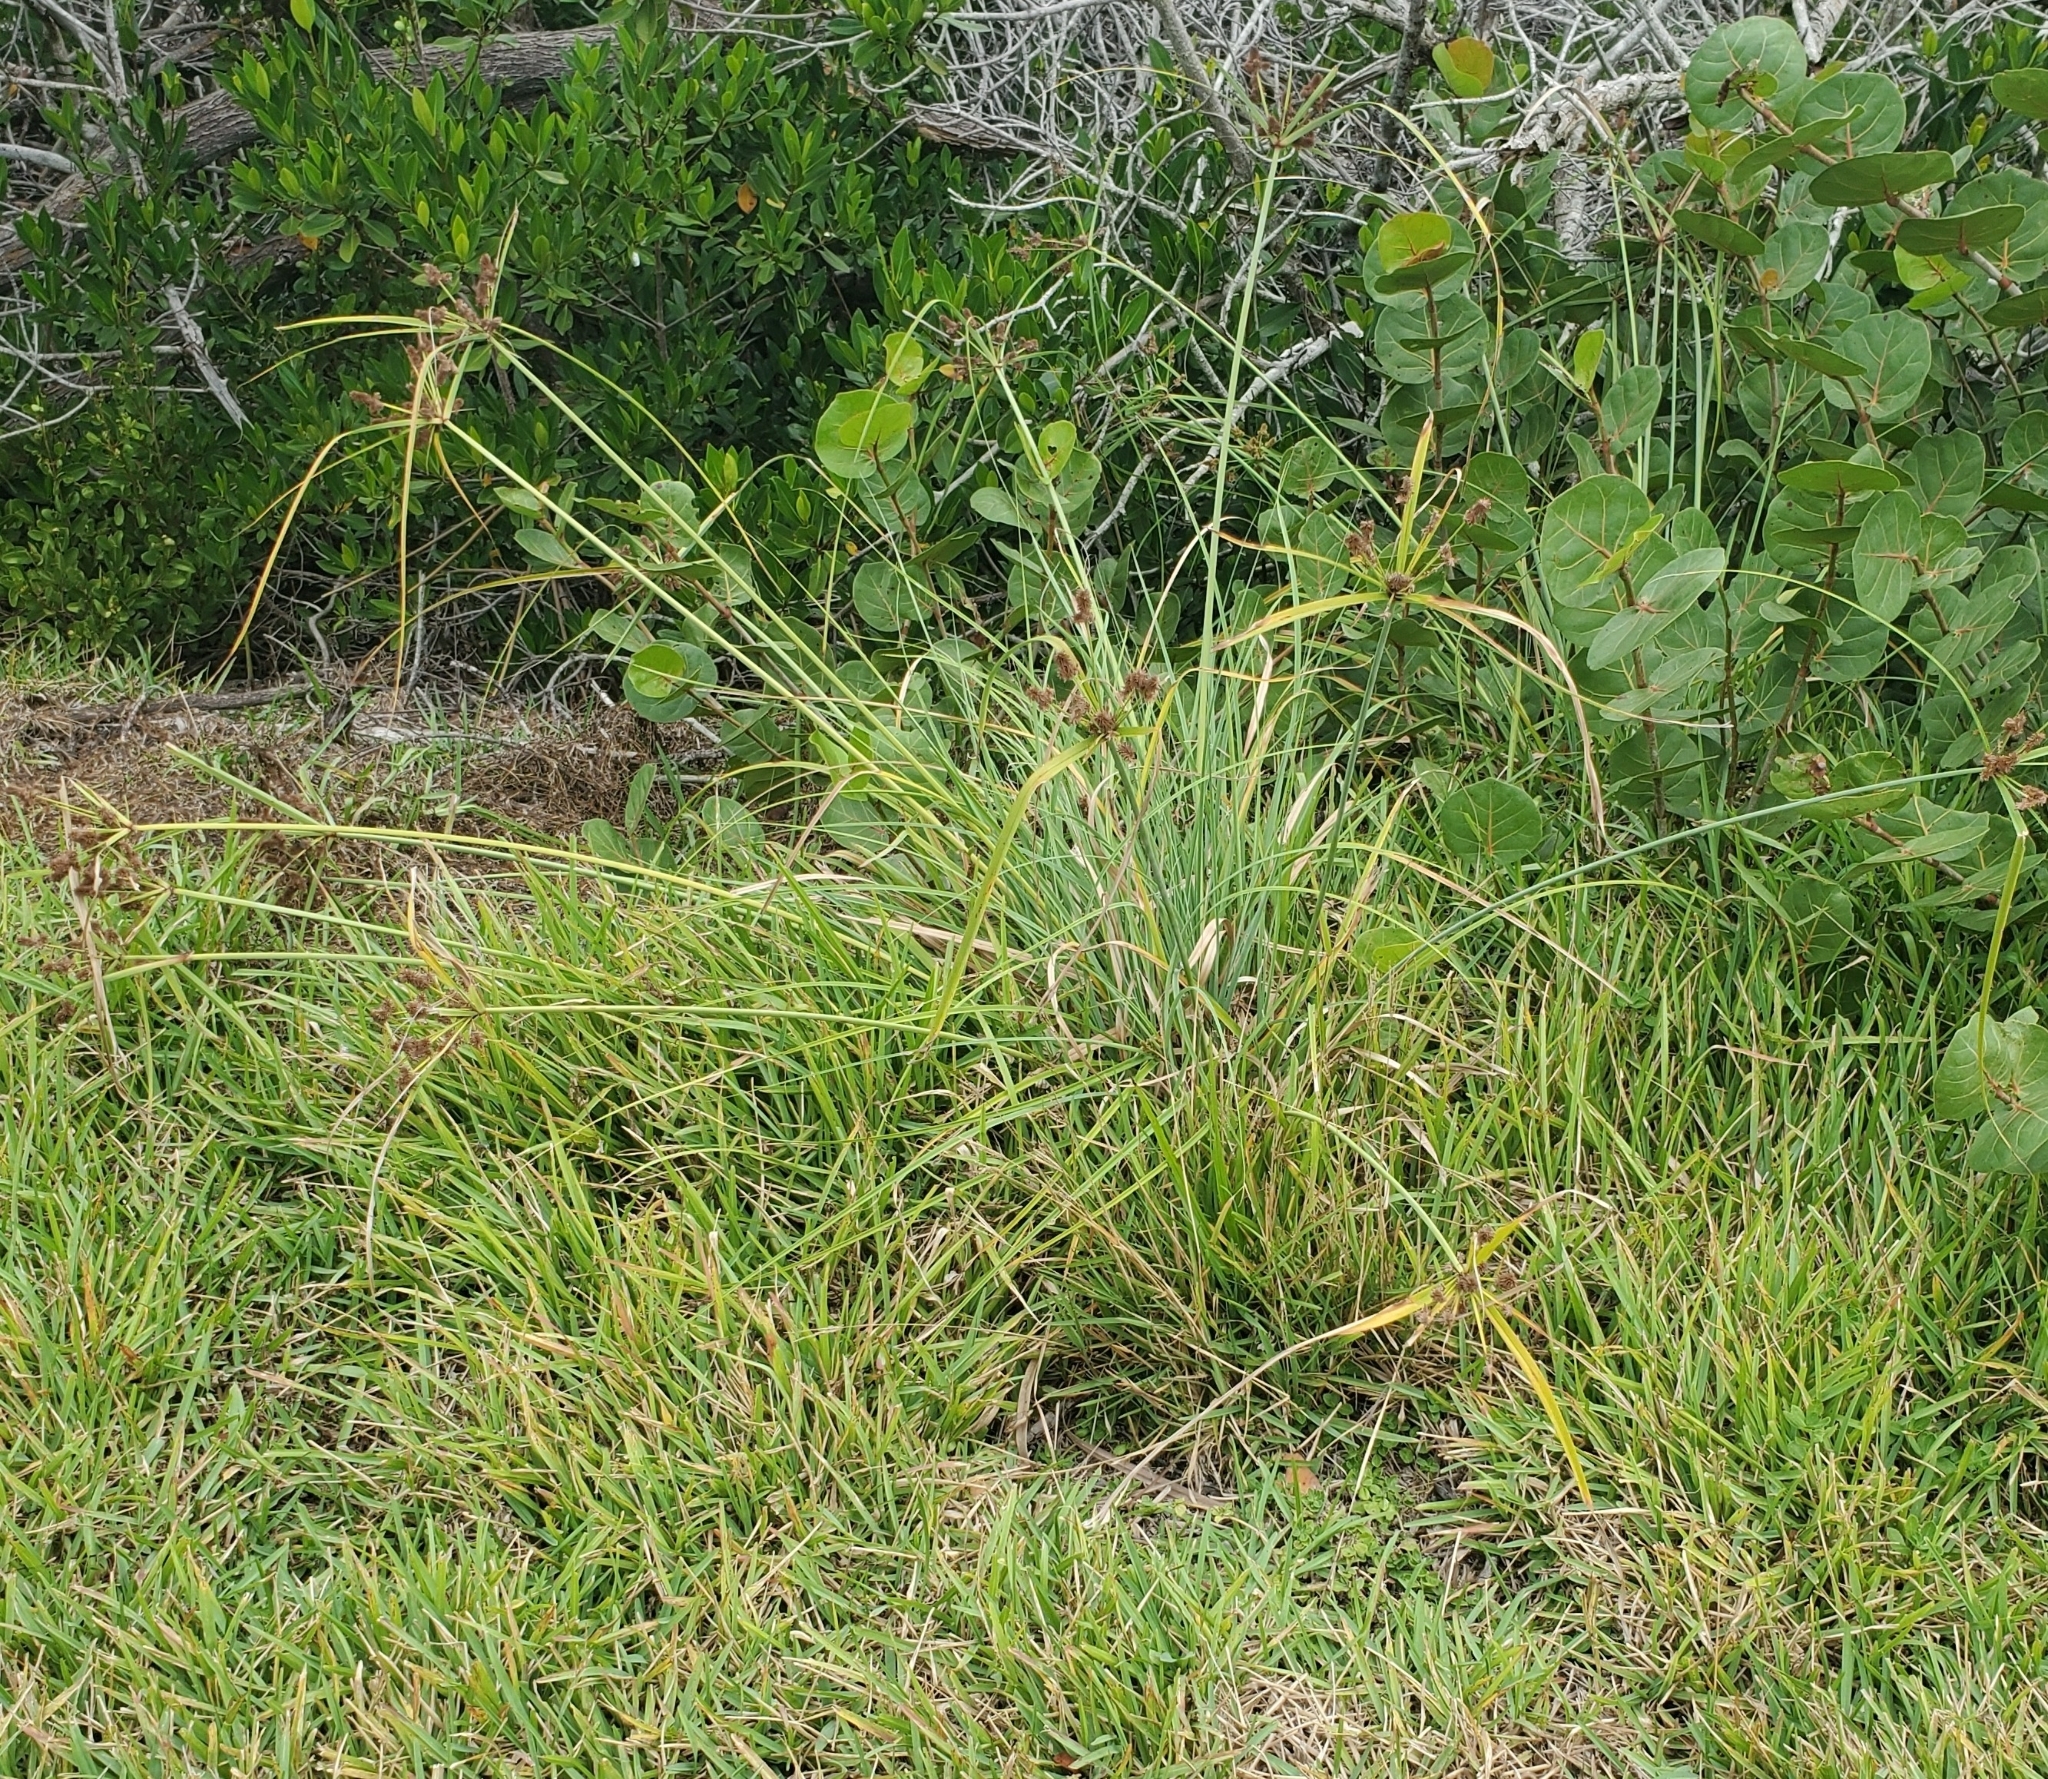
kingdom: Plantae
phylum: Tracheophyta
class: Liliopsida
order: Poales
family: Cyperaceae
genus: Cyperus
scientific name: Cyperus ligularis
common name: Swamp flat sedge
